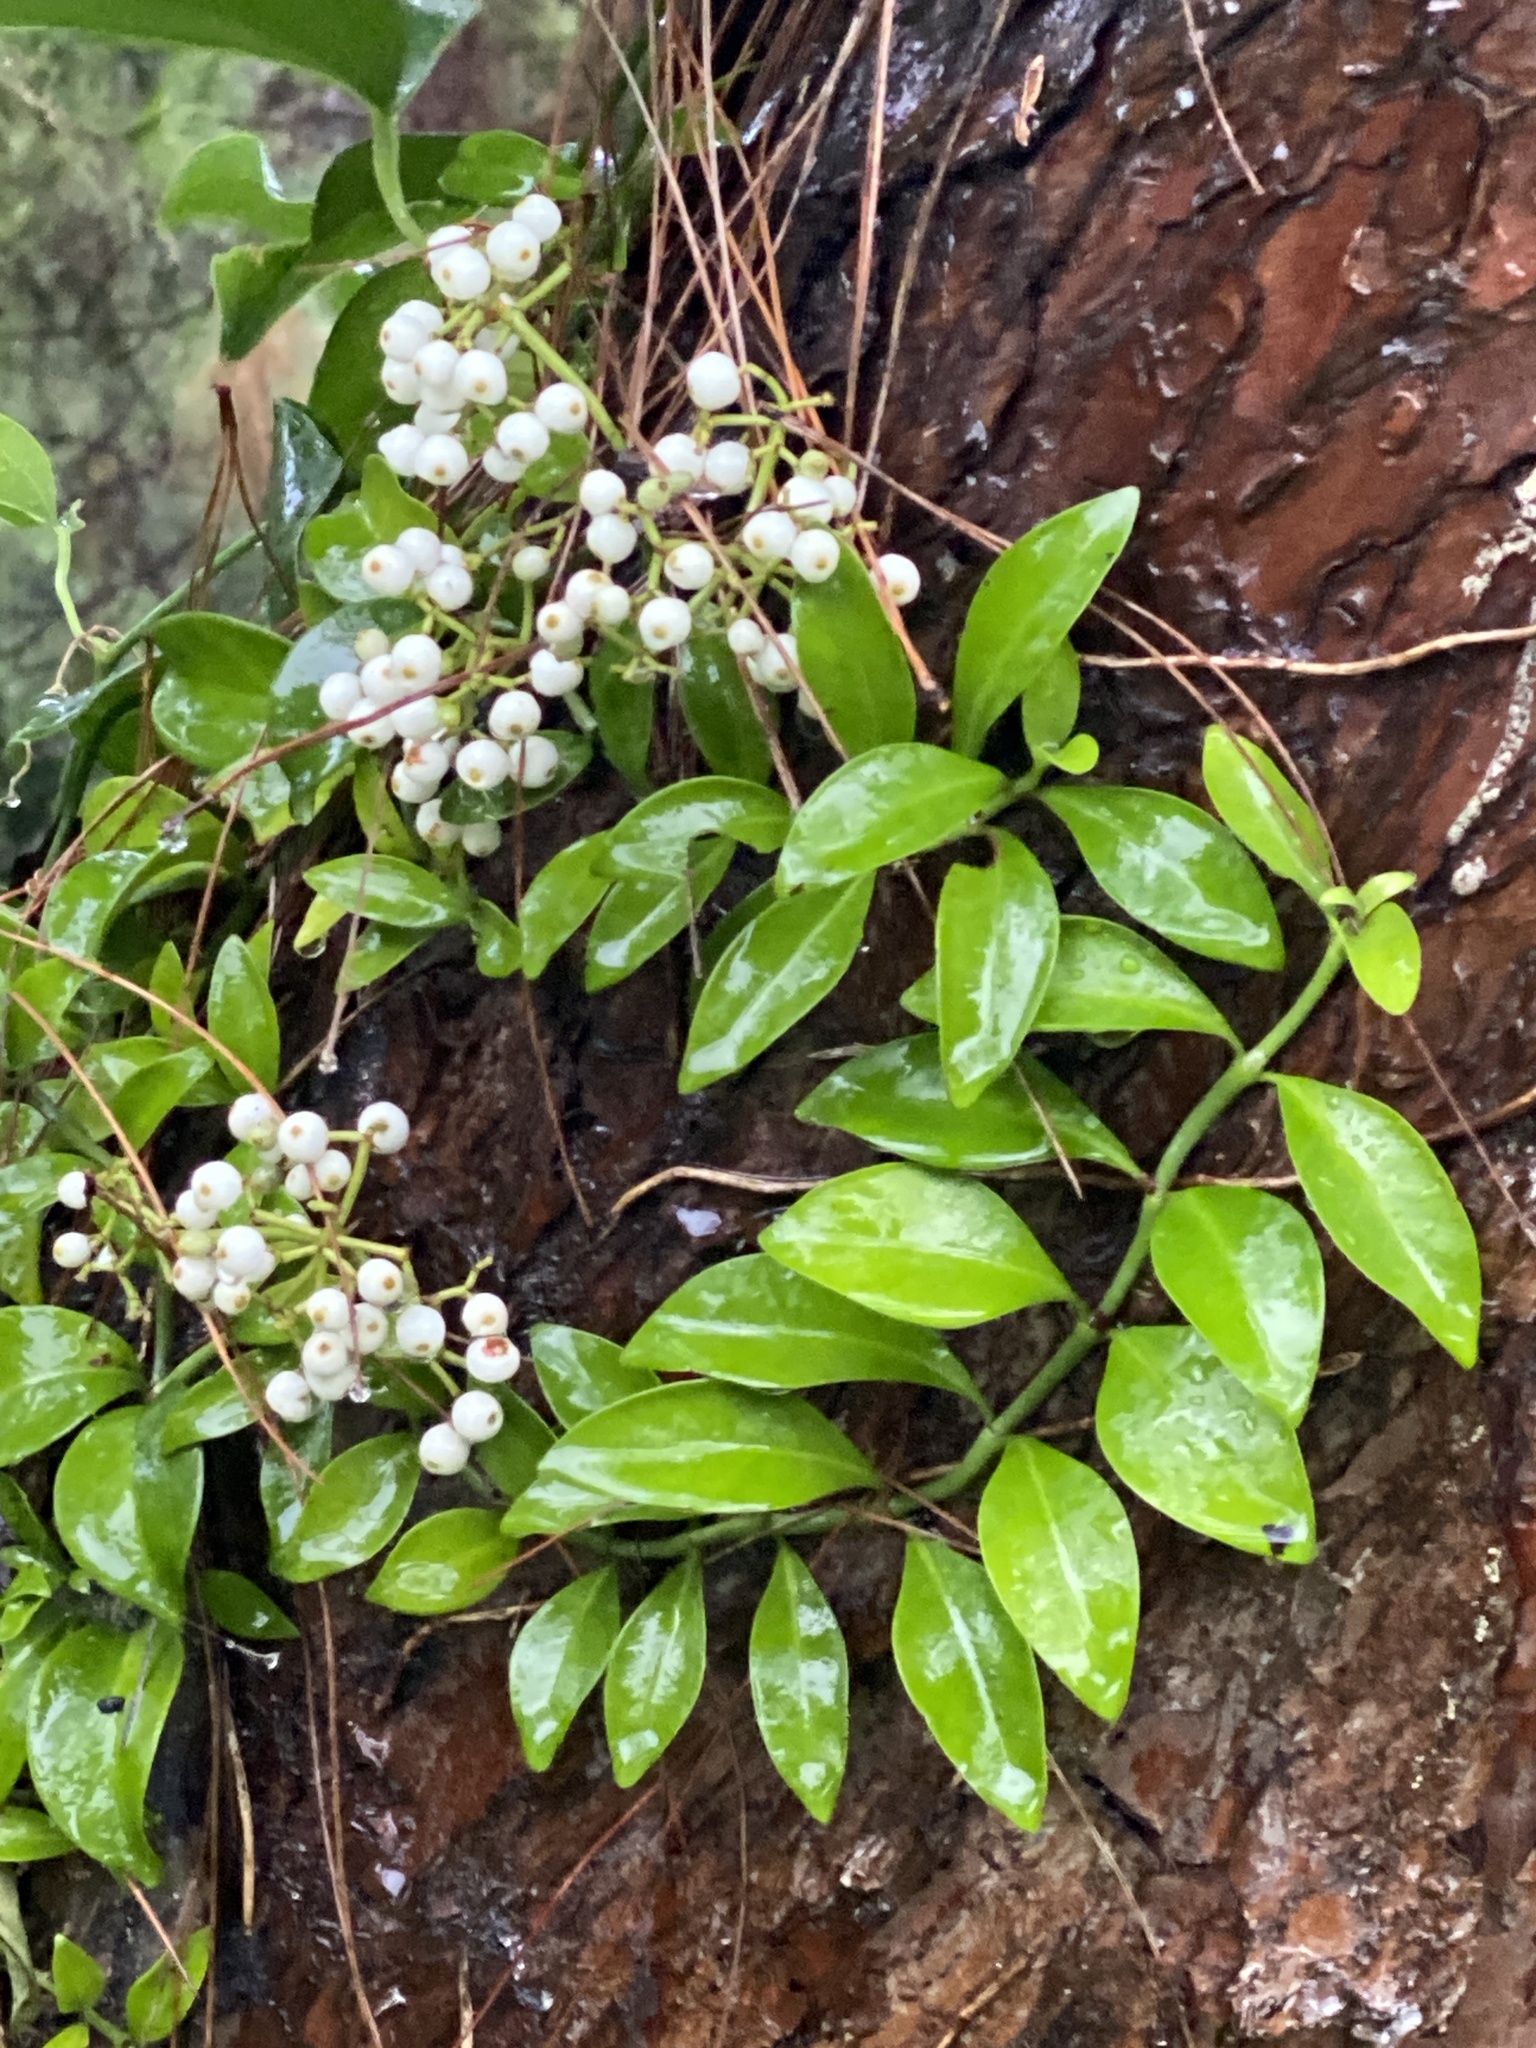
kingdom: Plantae
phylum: Tracheophyta
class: Magnoliopsida
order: Gentianales
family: Rubiaceae
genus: Psychotria
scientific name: Psychotria serpens
